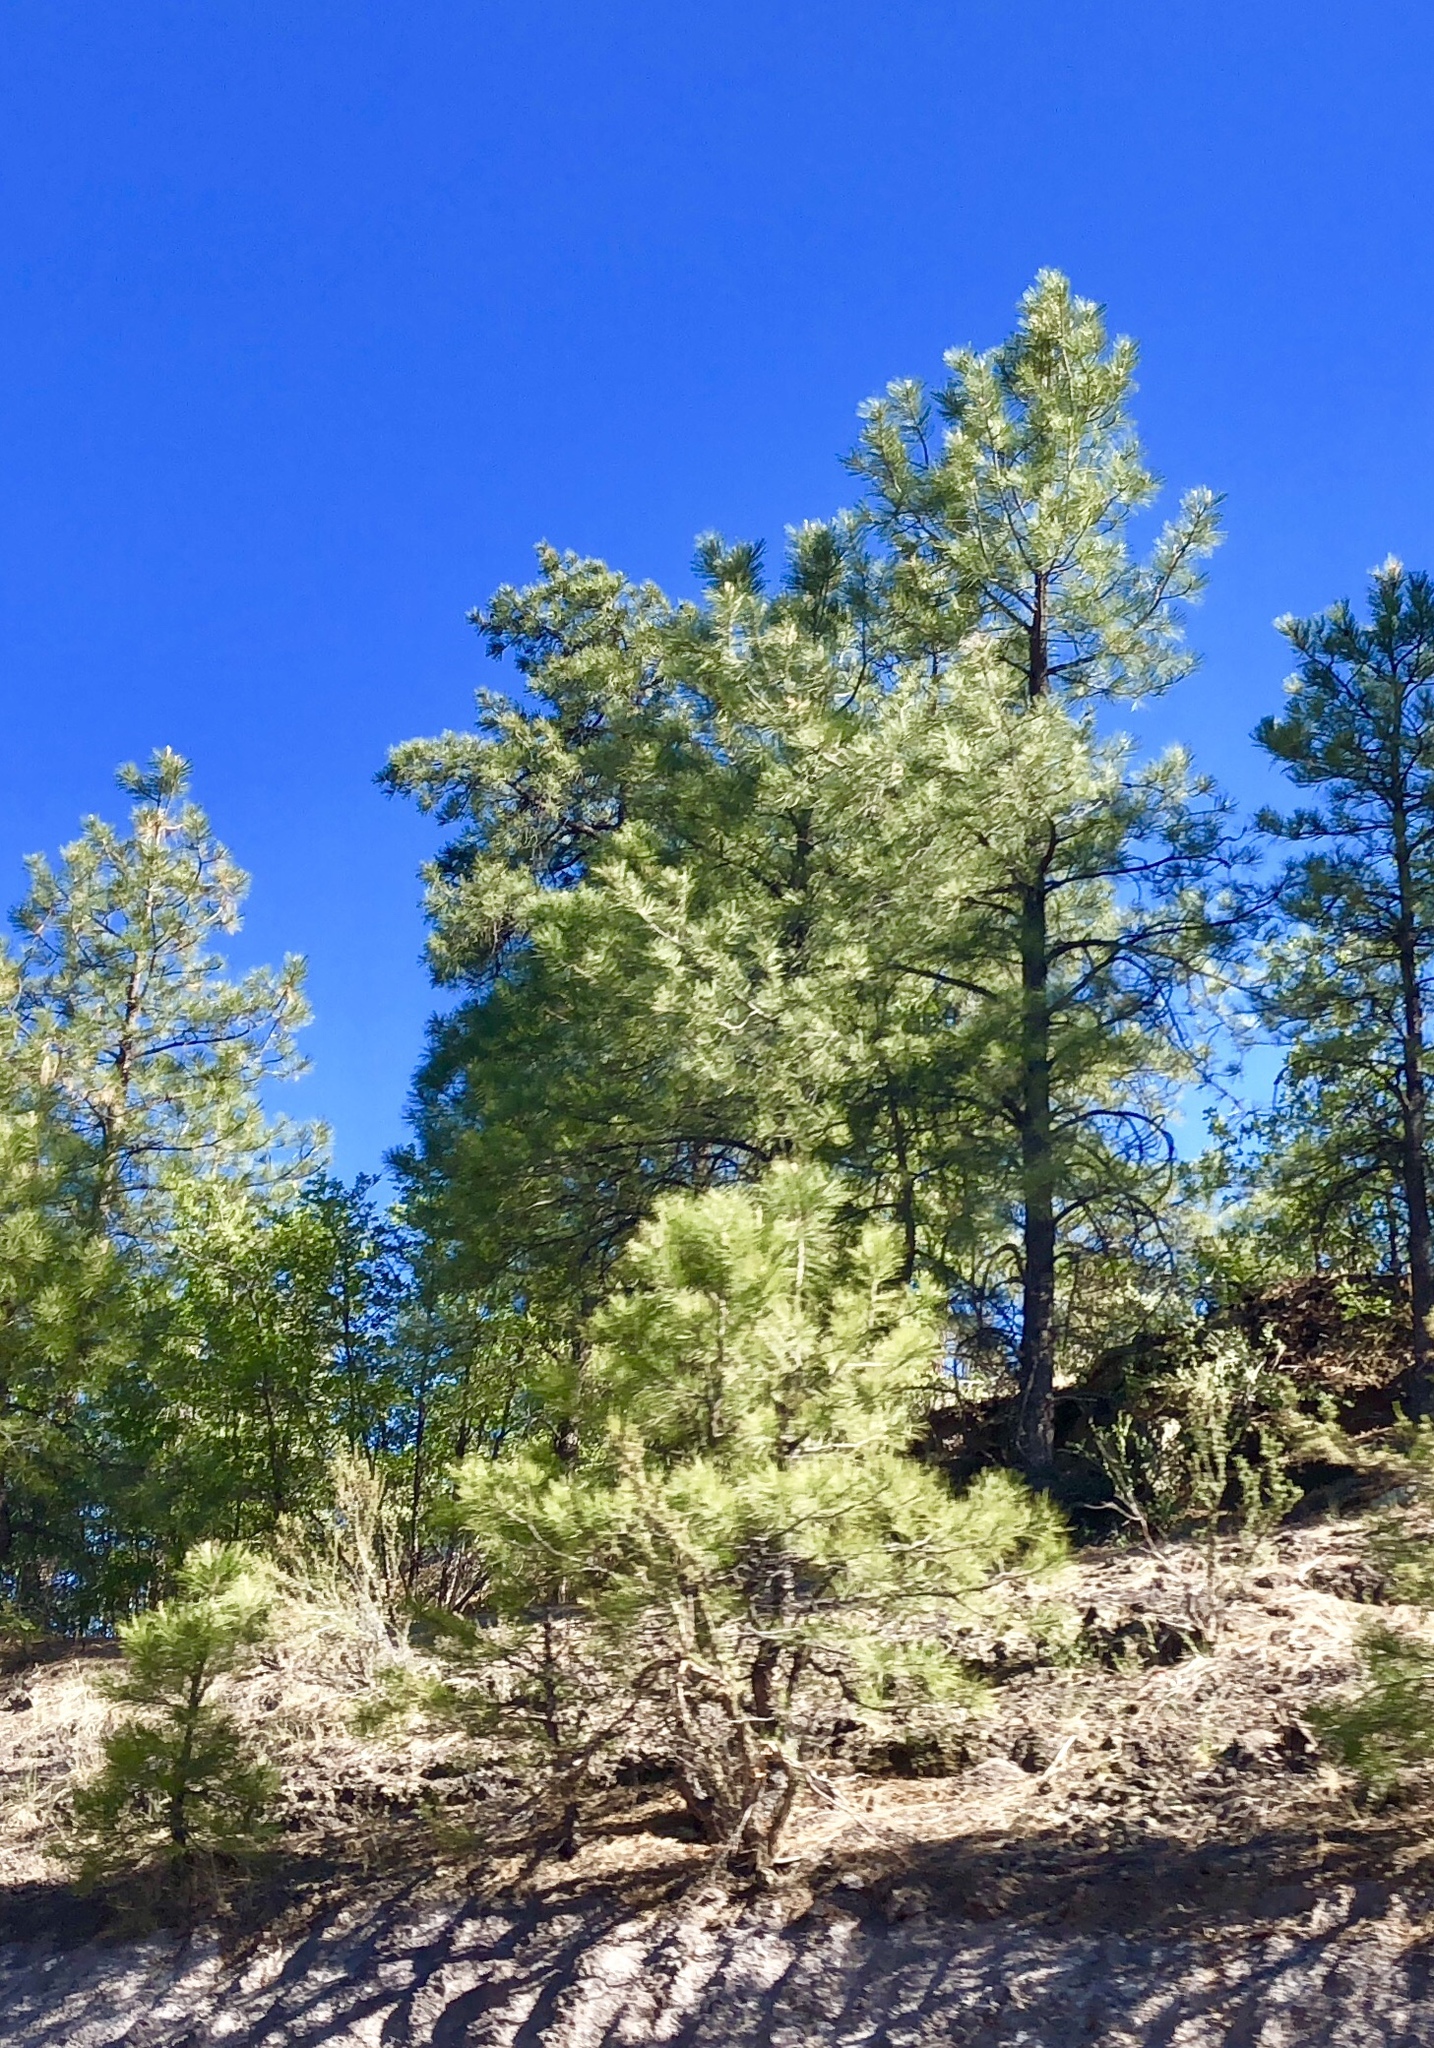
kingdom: Plantae
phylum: Tracheophyta
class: Pinopsida
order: Pinales
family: Pinaceae
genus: Pinus
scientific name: Pinus ponderosa
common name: Western yellow-pine
